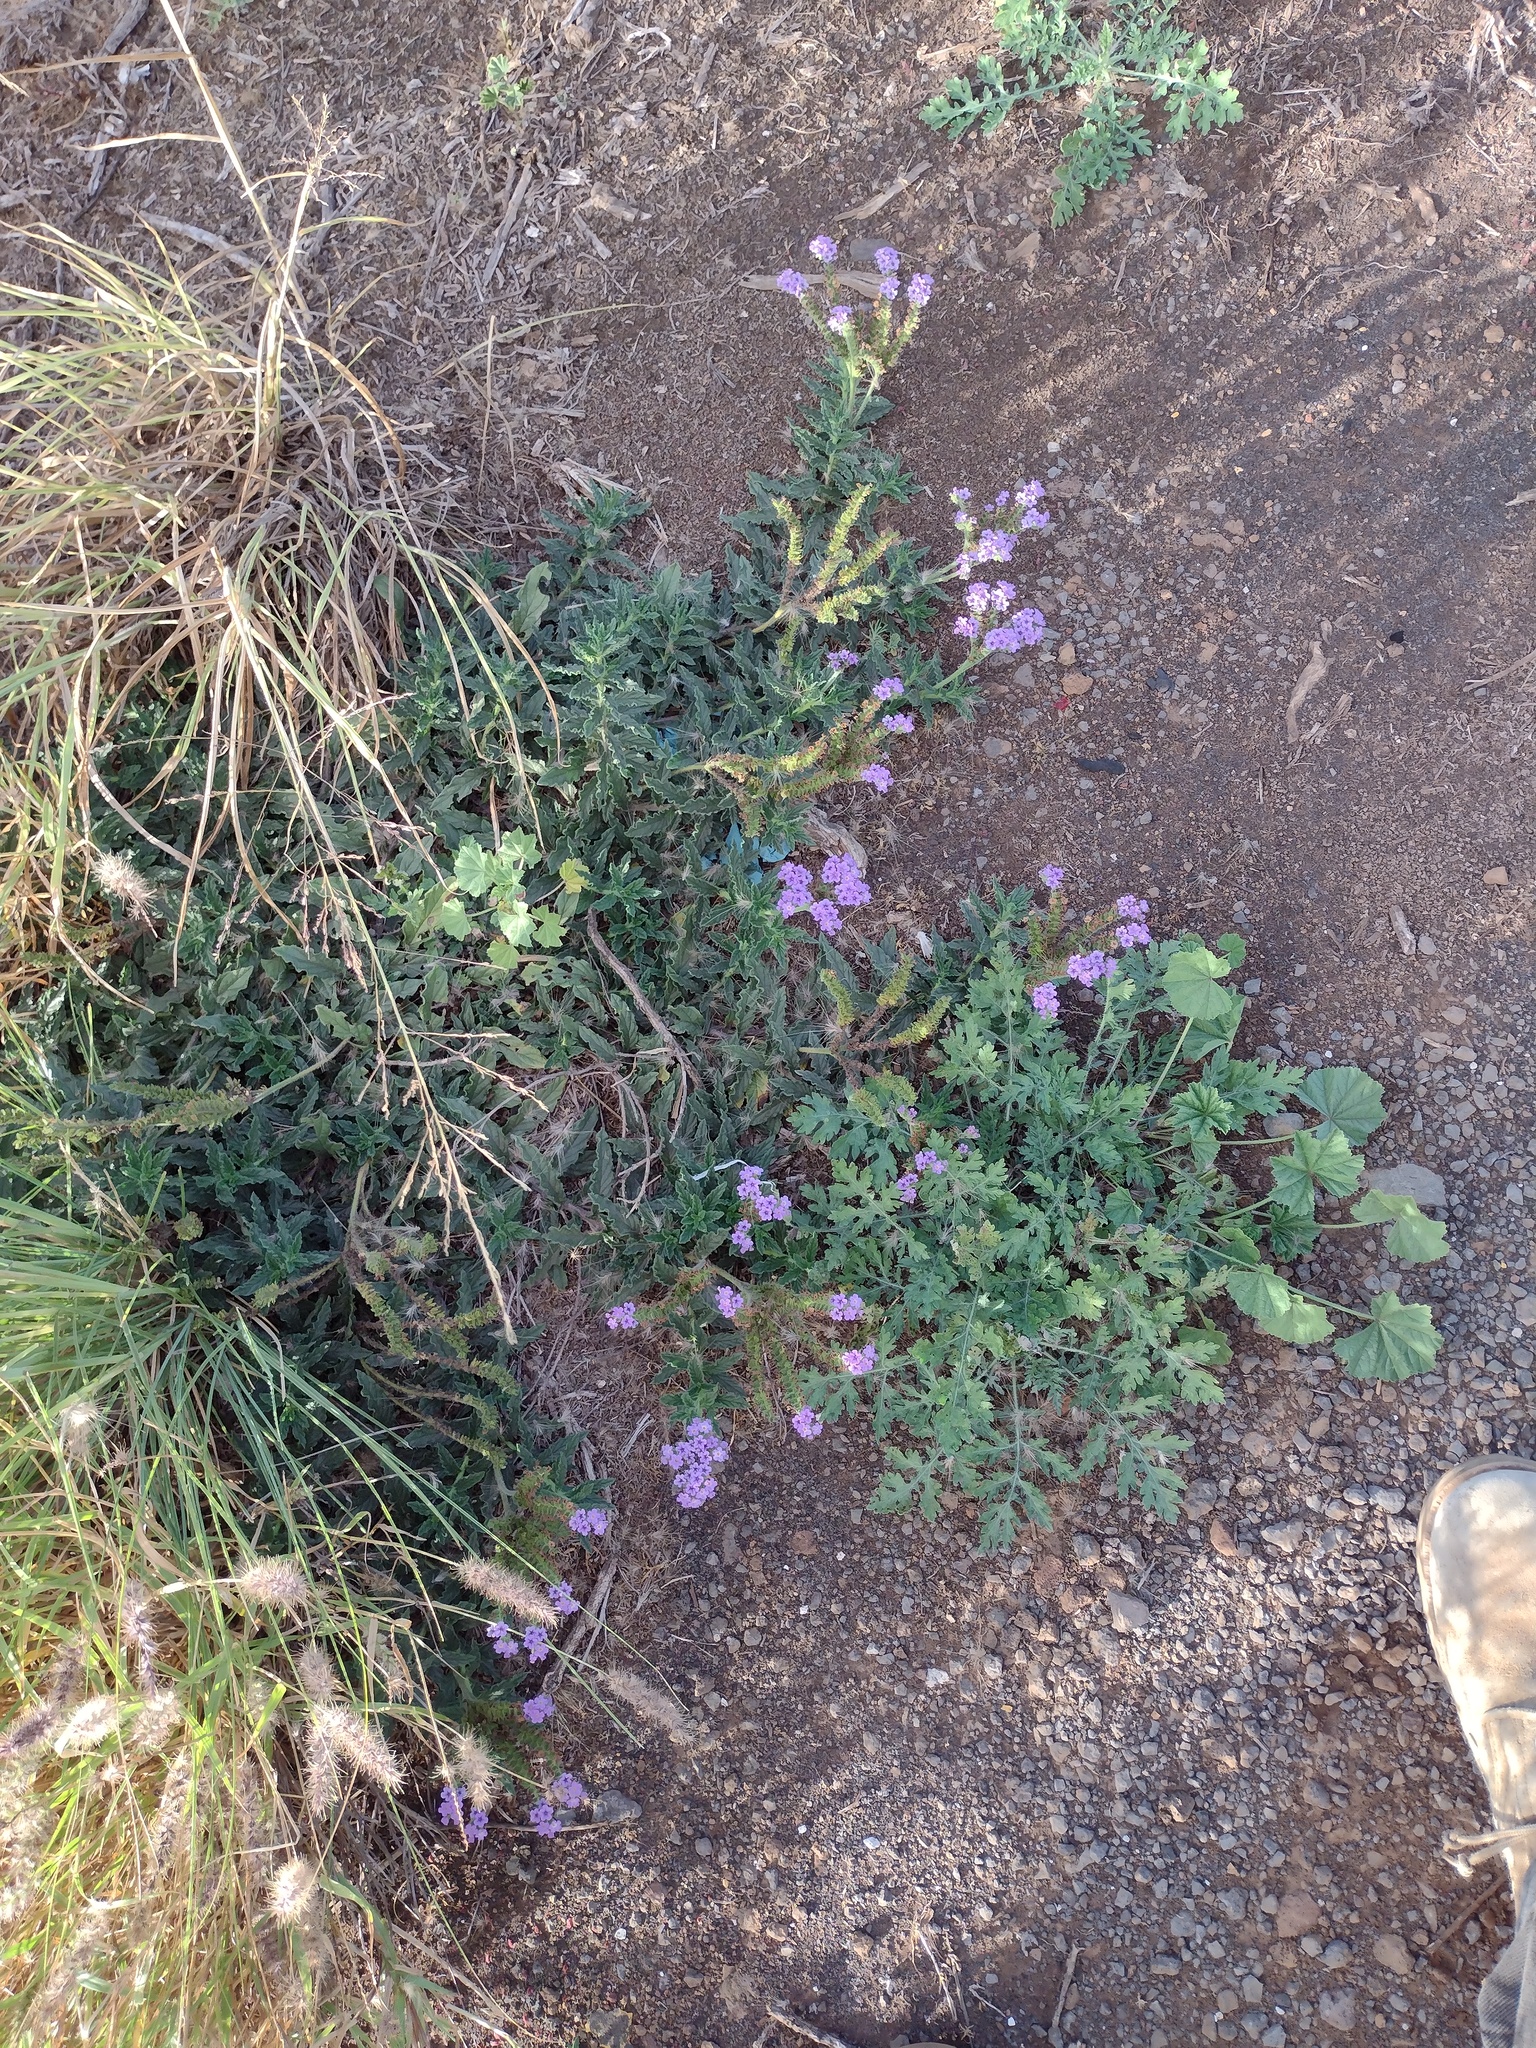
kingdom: Plantae
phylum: Tracheophyta
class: Magnoliopsida
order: Boraginales
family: Heliotropiaceae
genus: Heliotropium
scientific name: Heliotropium amplexicaule
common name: Clasping heliotrope
